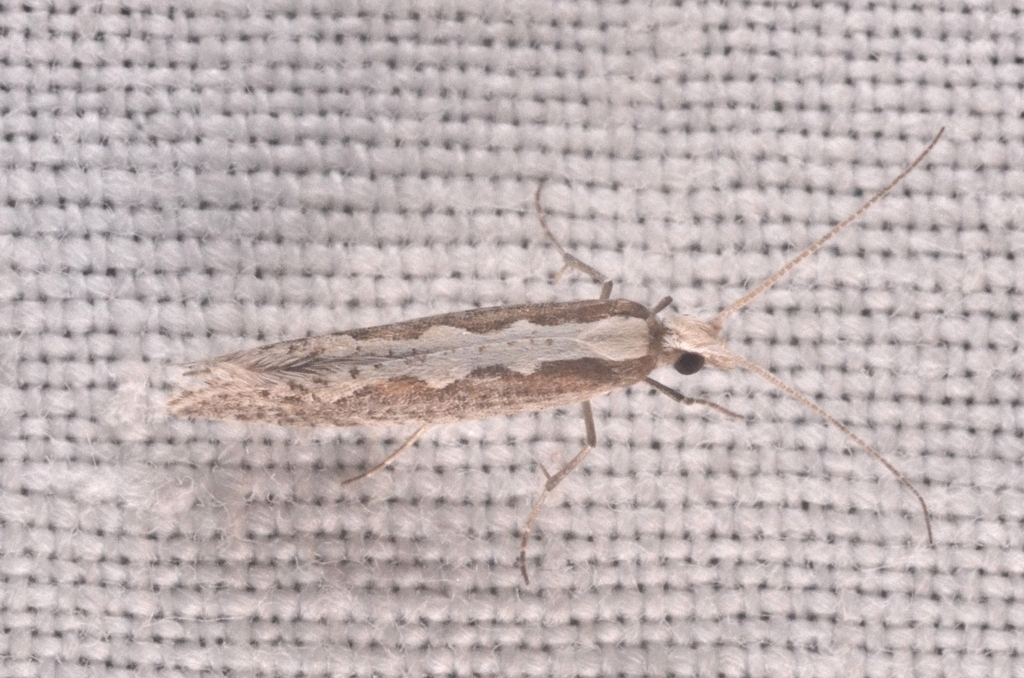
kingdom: Animalia
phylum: Arthropoda
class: Insecta
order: Lepidoptera
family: Plutellidae
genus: Plutella
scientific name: Plutella xylostella
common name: Diamond-back moth
